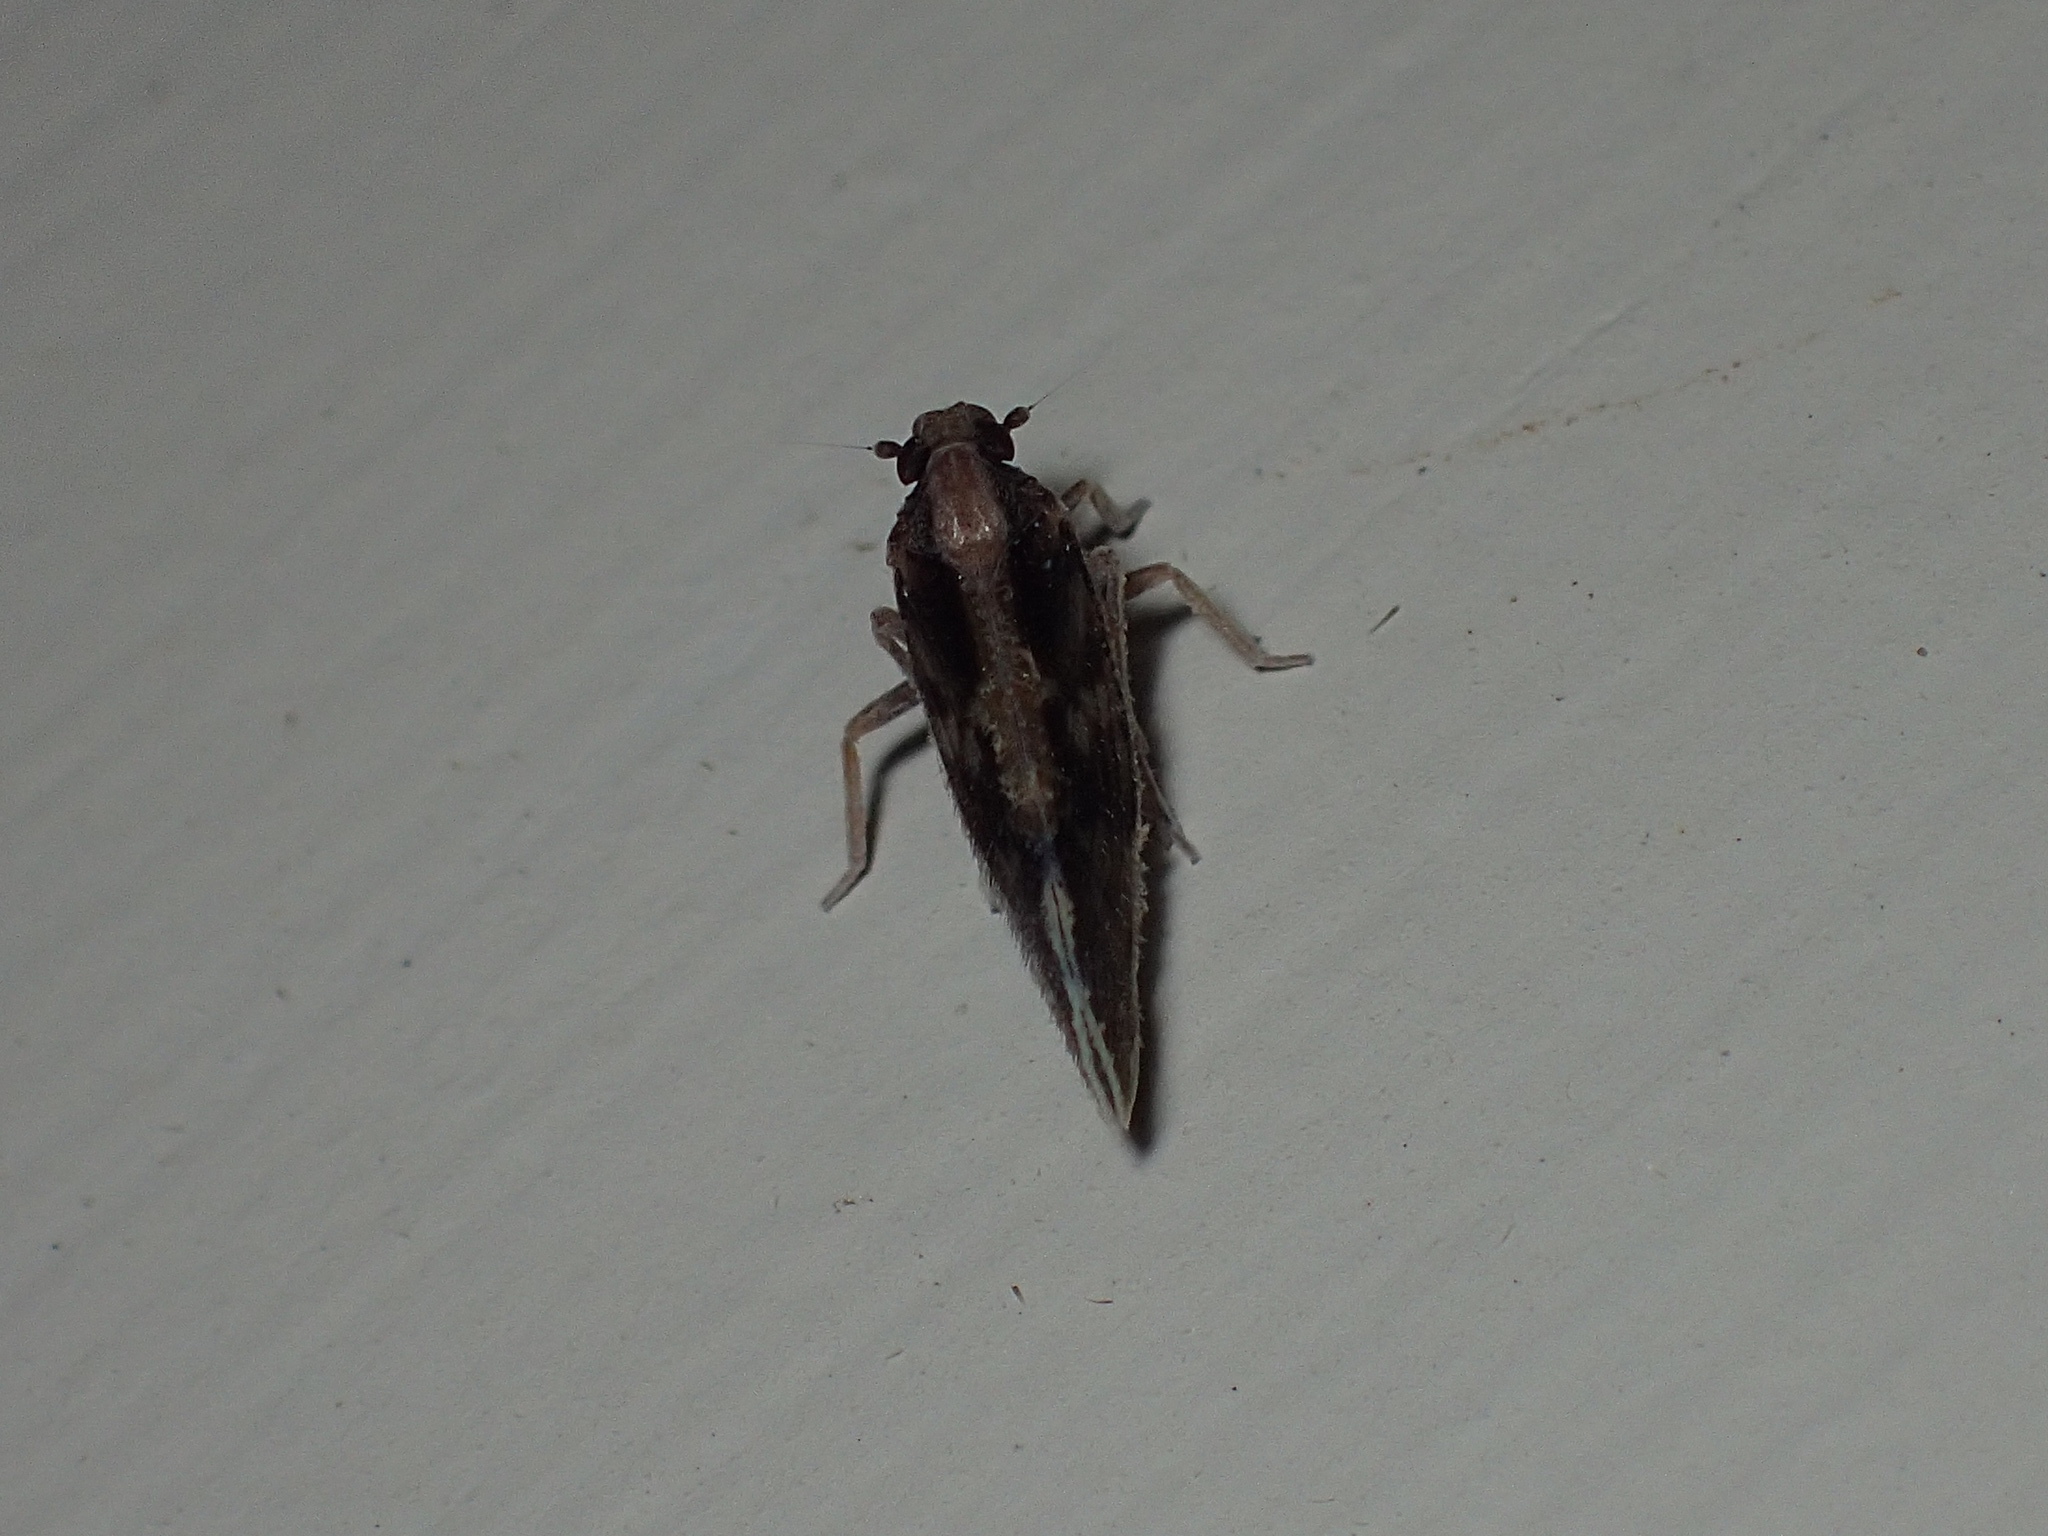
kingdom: Animalia
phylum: Arthropoda
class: Insecta
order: Hemiptera
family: Cixiidae
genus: Pintalia
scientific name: Pintalia vibex
